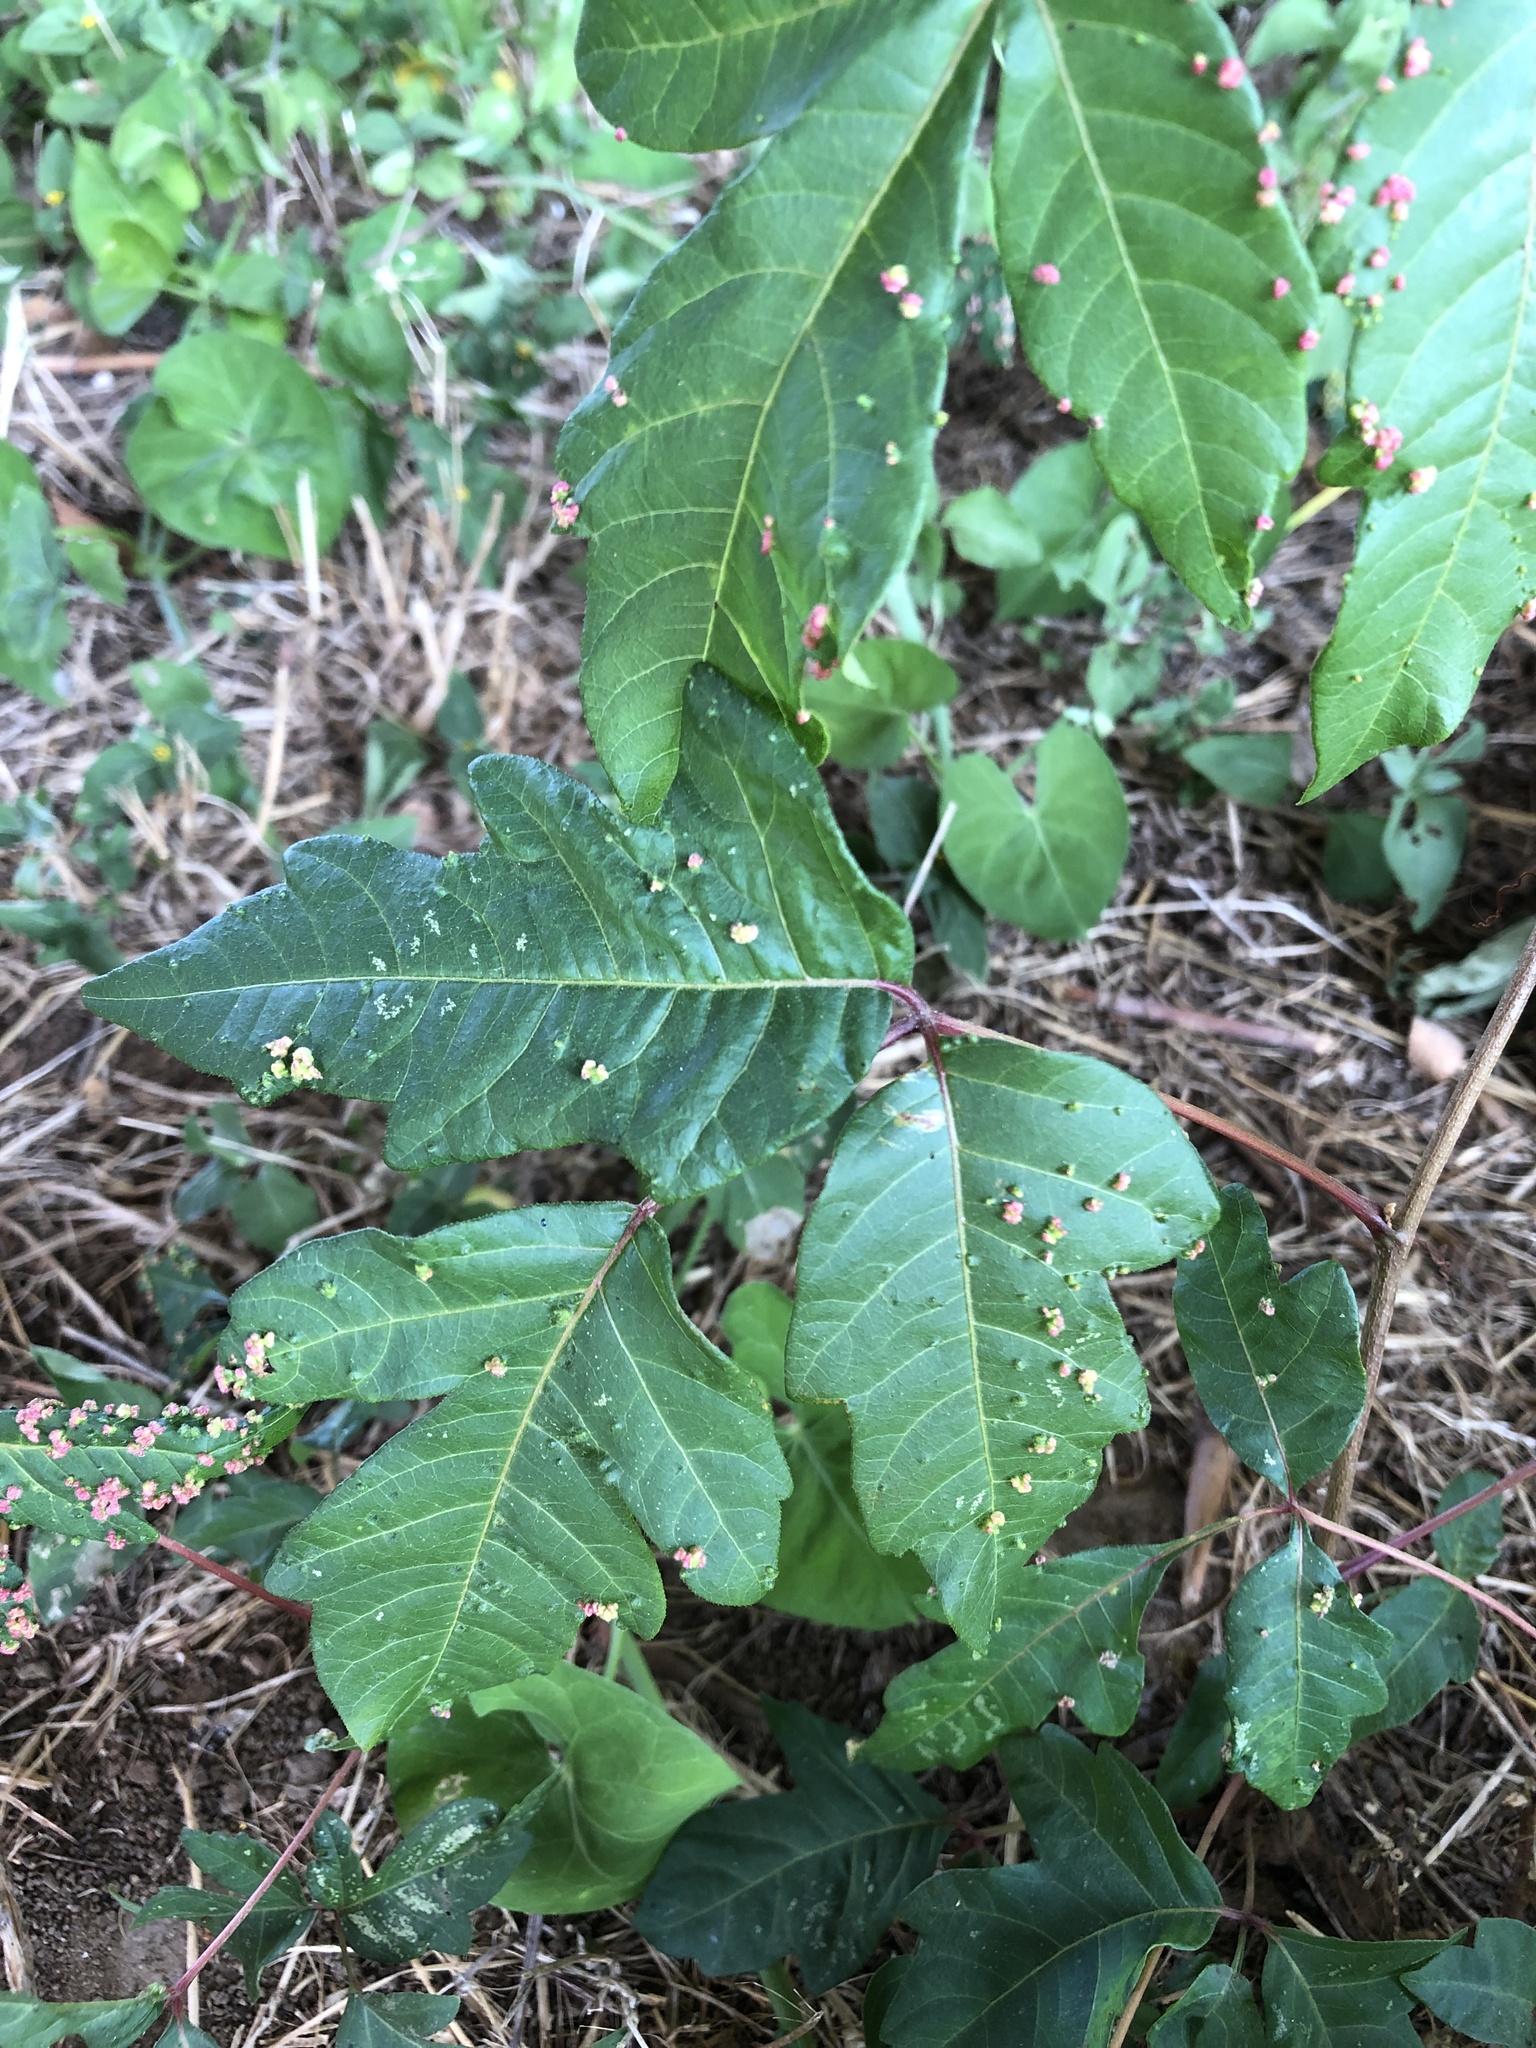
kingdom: Animalia
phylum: Arthropoda
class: Arachnida
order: Trombidiformes
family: Eriophyidae
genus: Aculops
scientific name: Aculops
